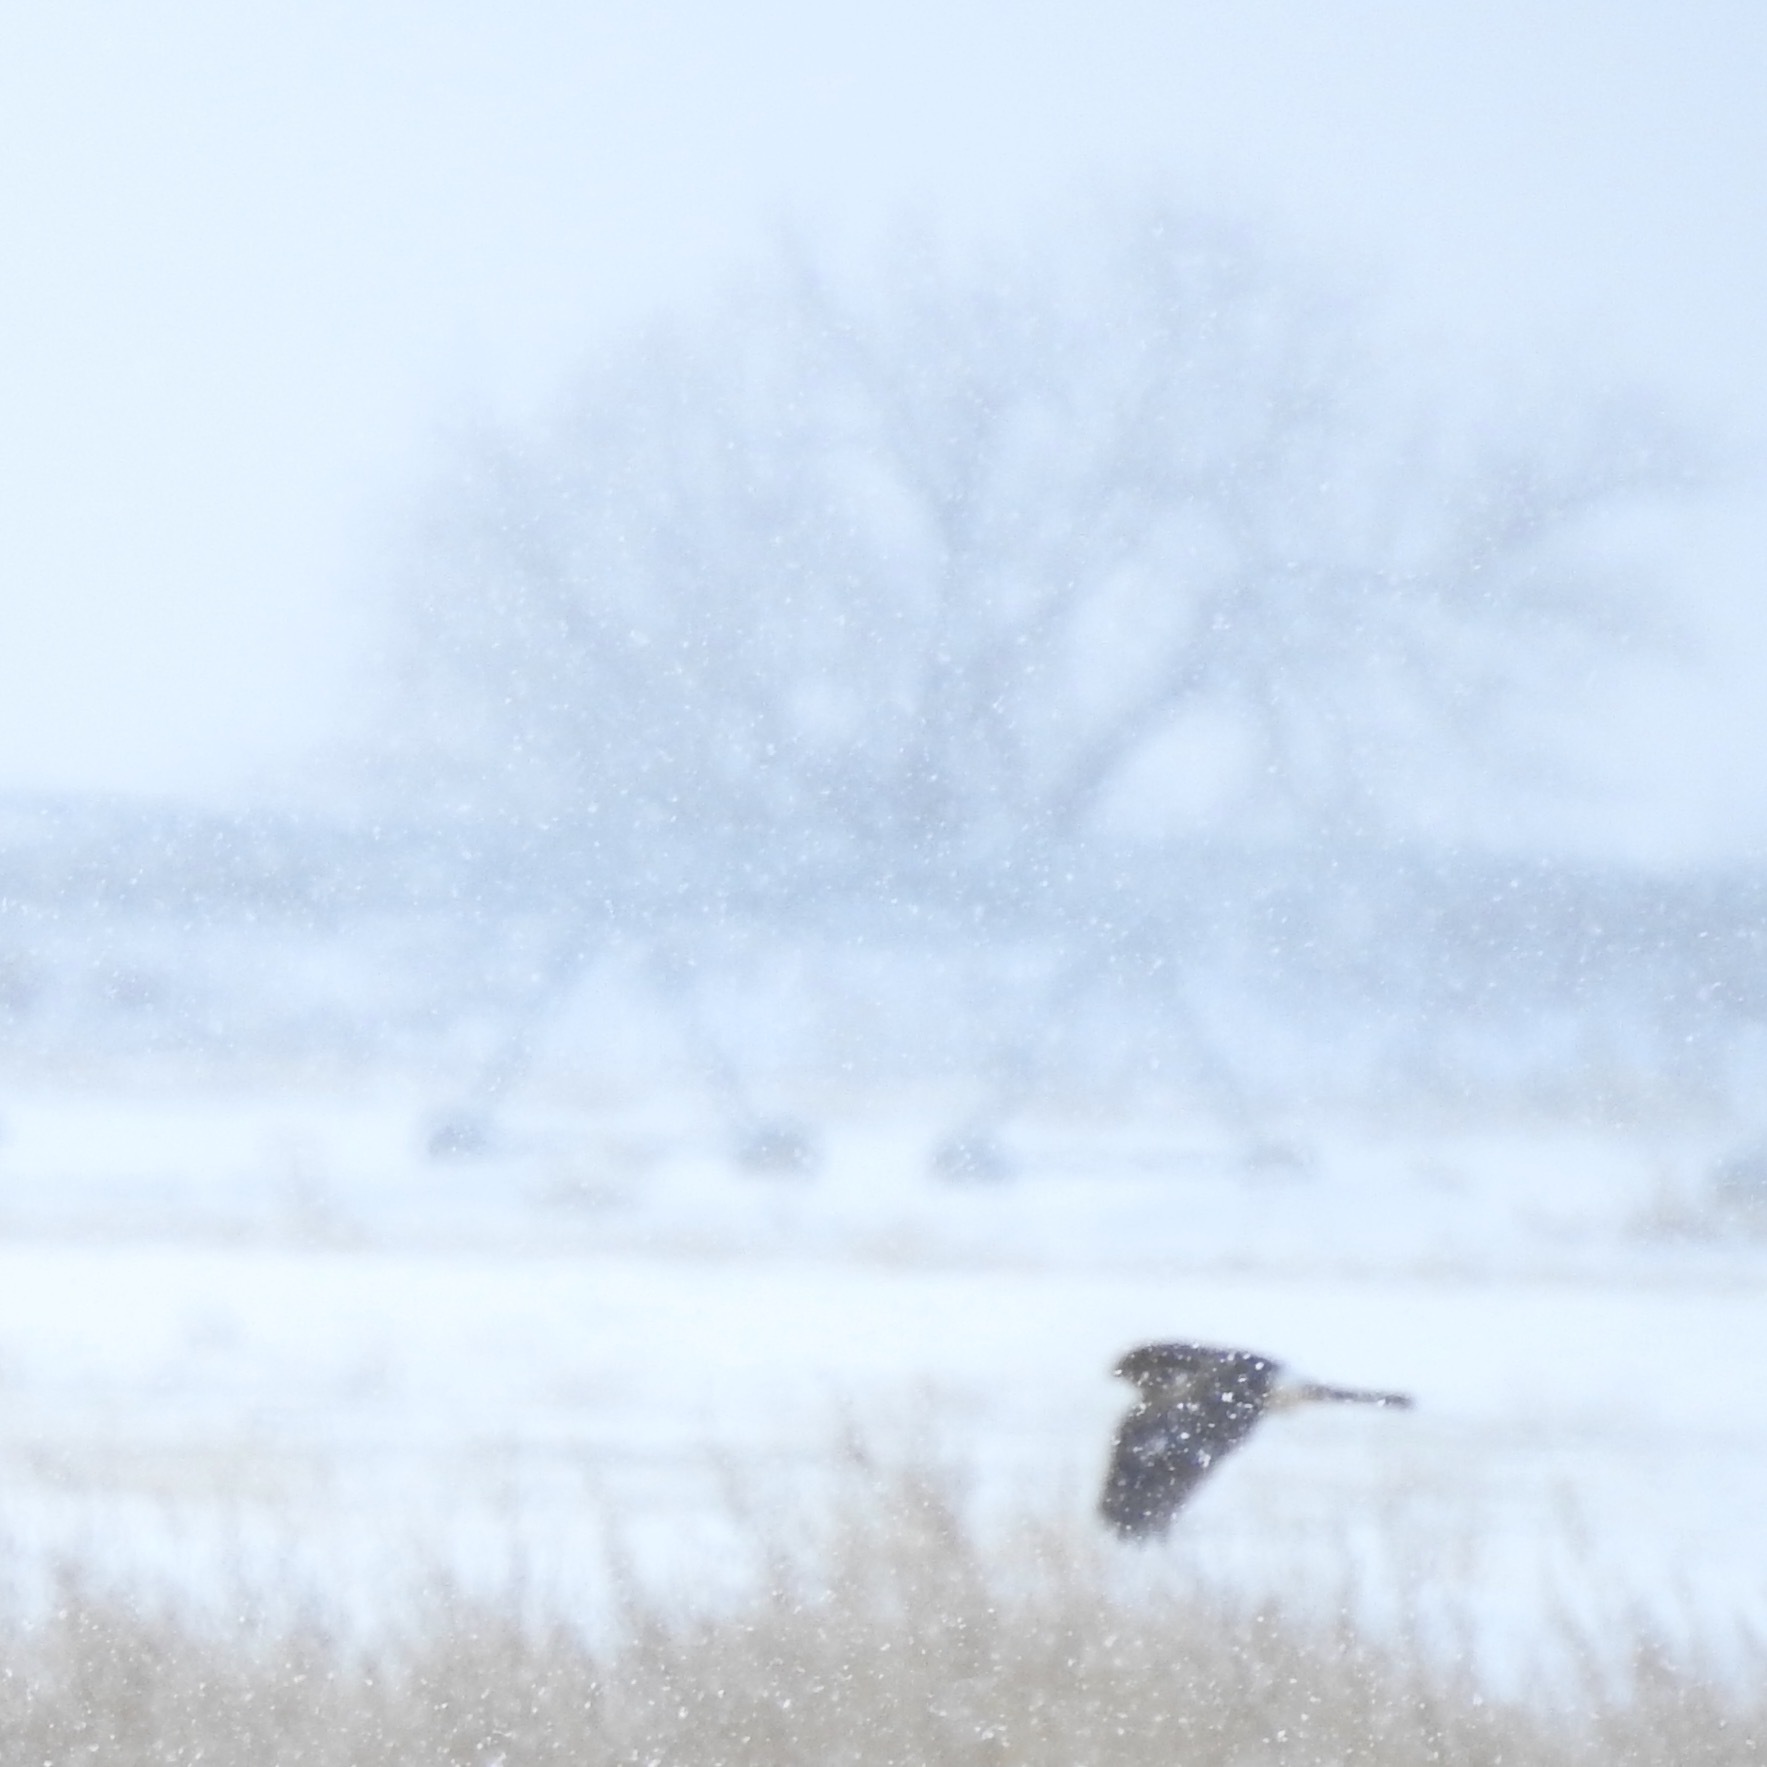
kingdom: Animalia
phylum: Chordata
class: Aves
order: Accipitriformes
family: Accipitridae
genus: Circus
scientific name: Circus cyaneus
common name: Hen harrier
